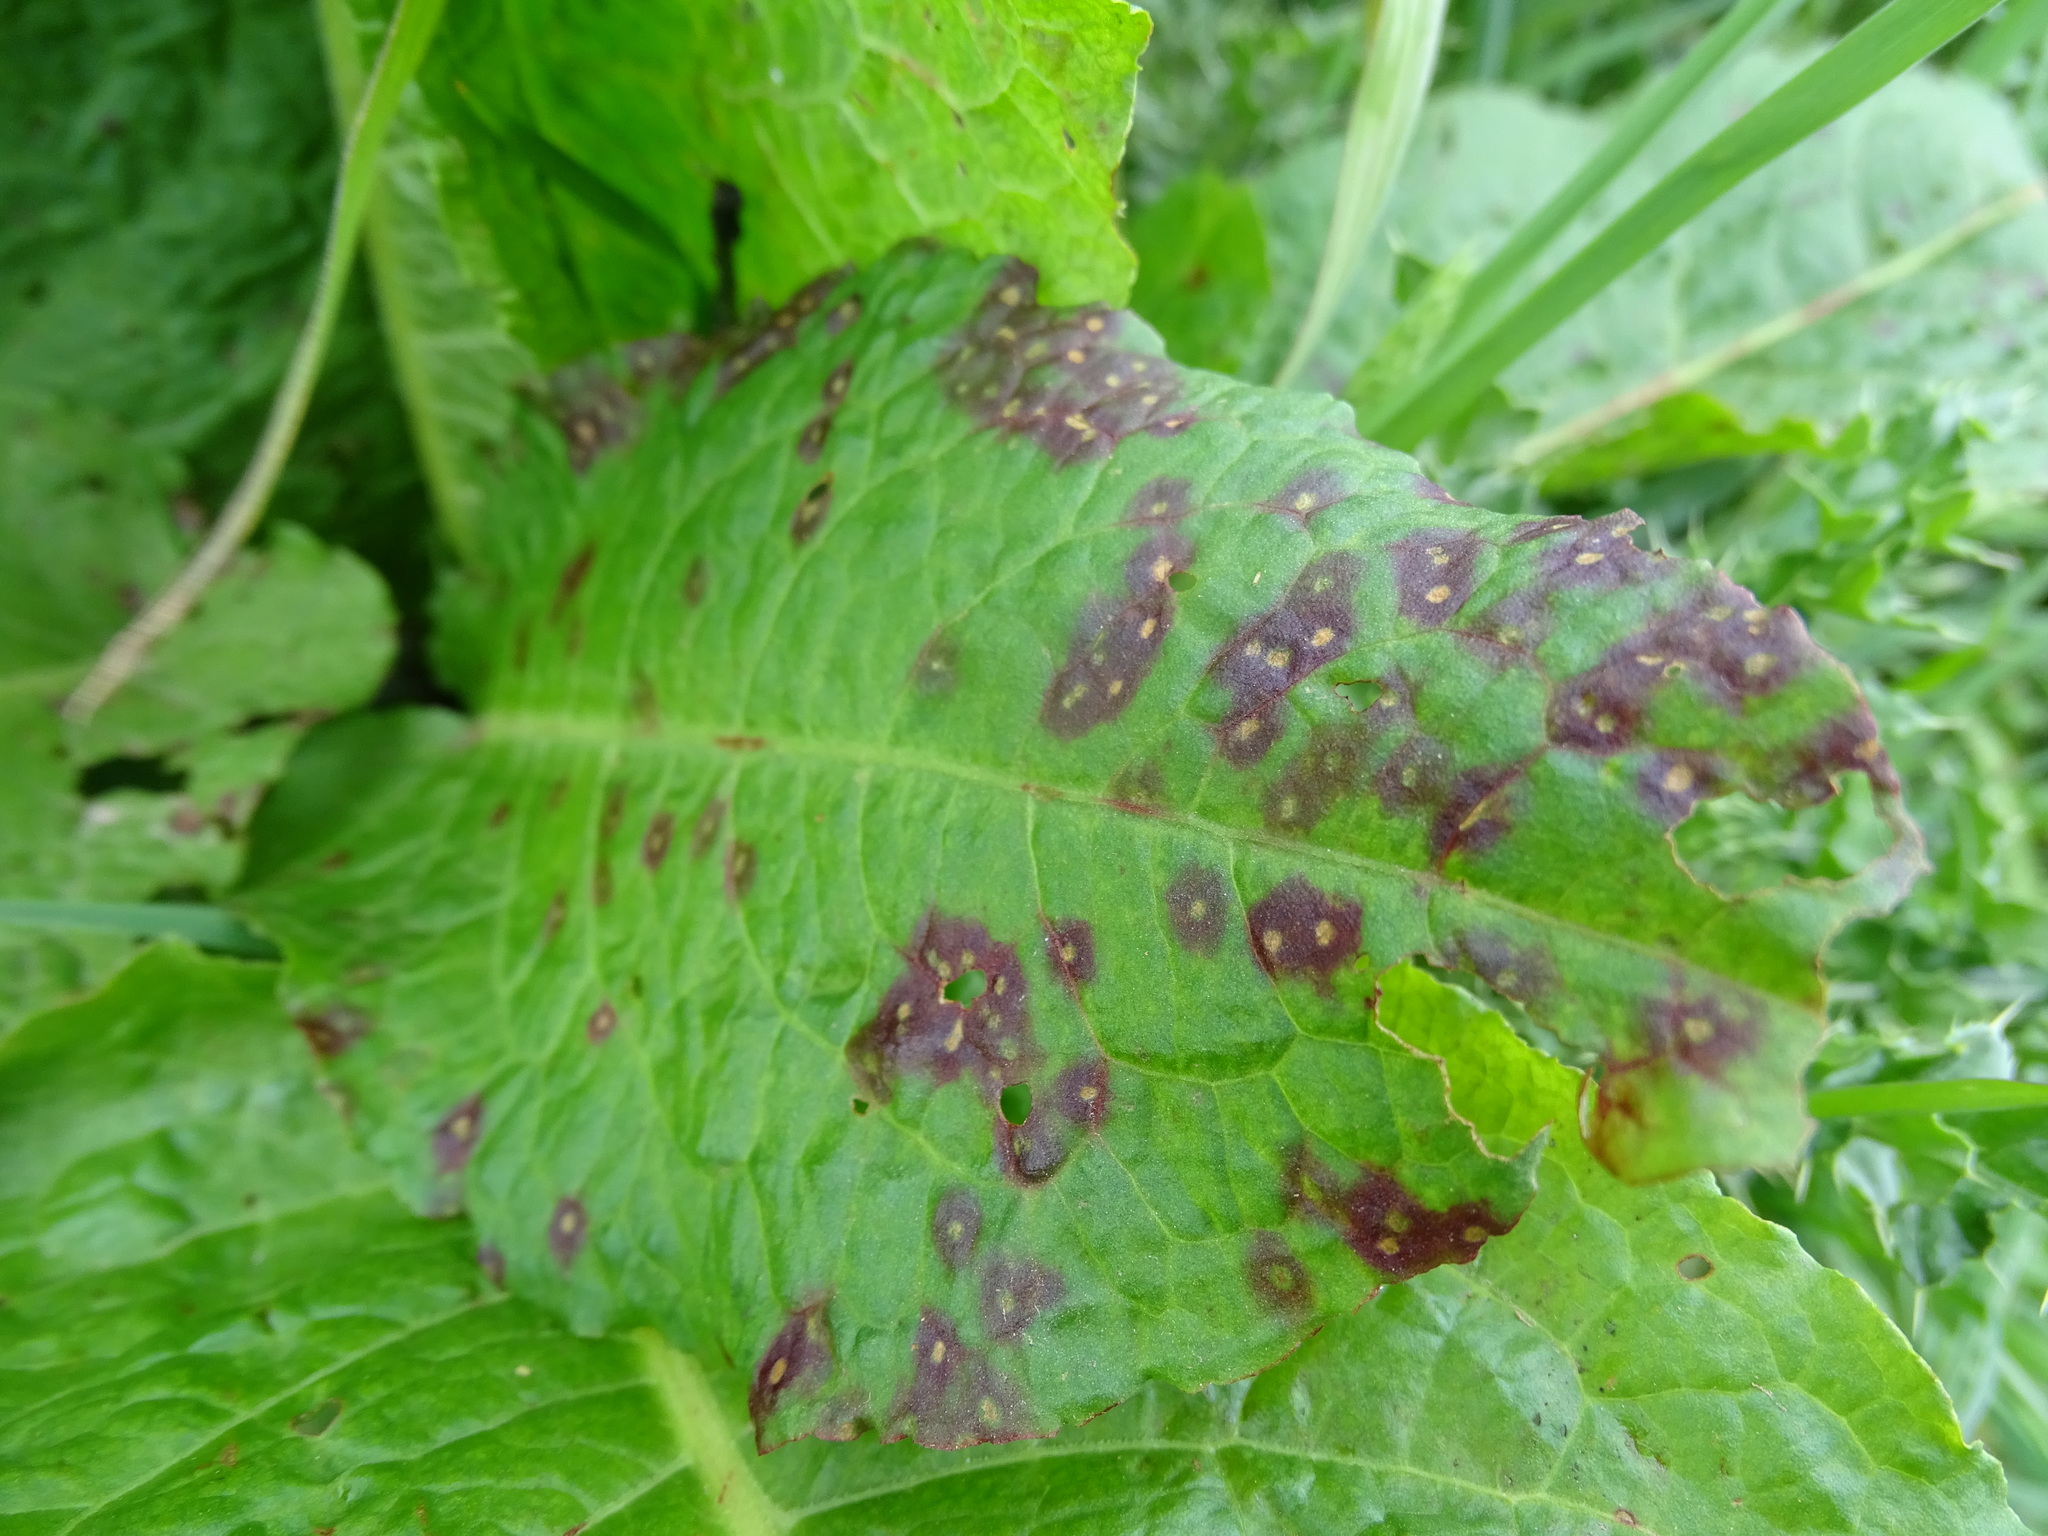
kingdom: Fungi
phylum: Ascomycota
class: Dothideomycetes
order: Mycosphaerellales
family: Mycosphaerellaceae
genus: Ramularia
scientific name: Ramularia rubella
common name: Red dock spot
